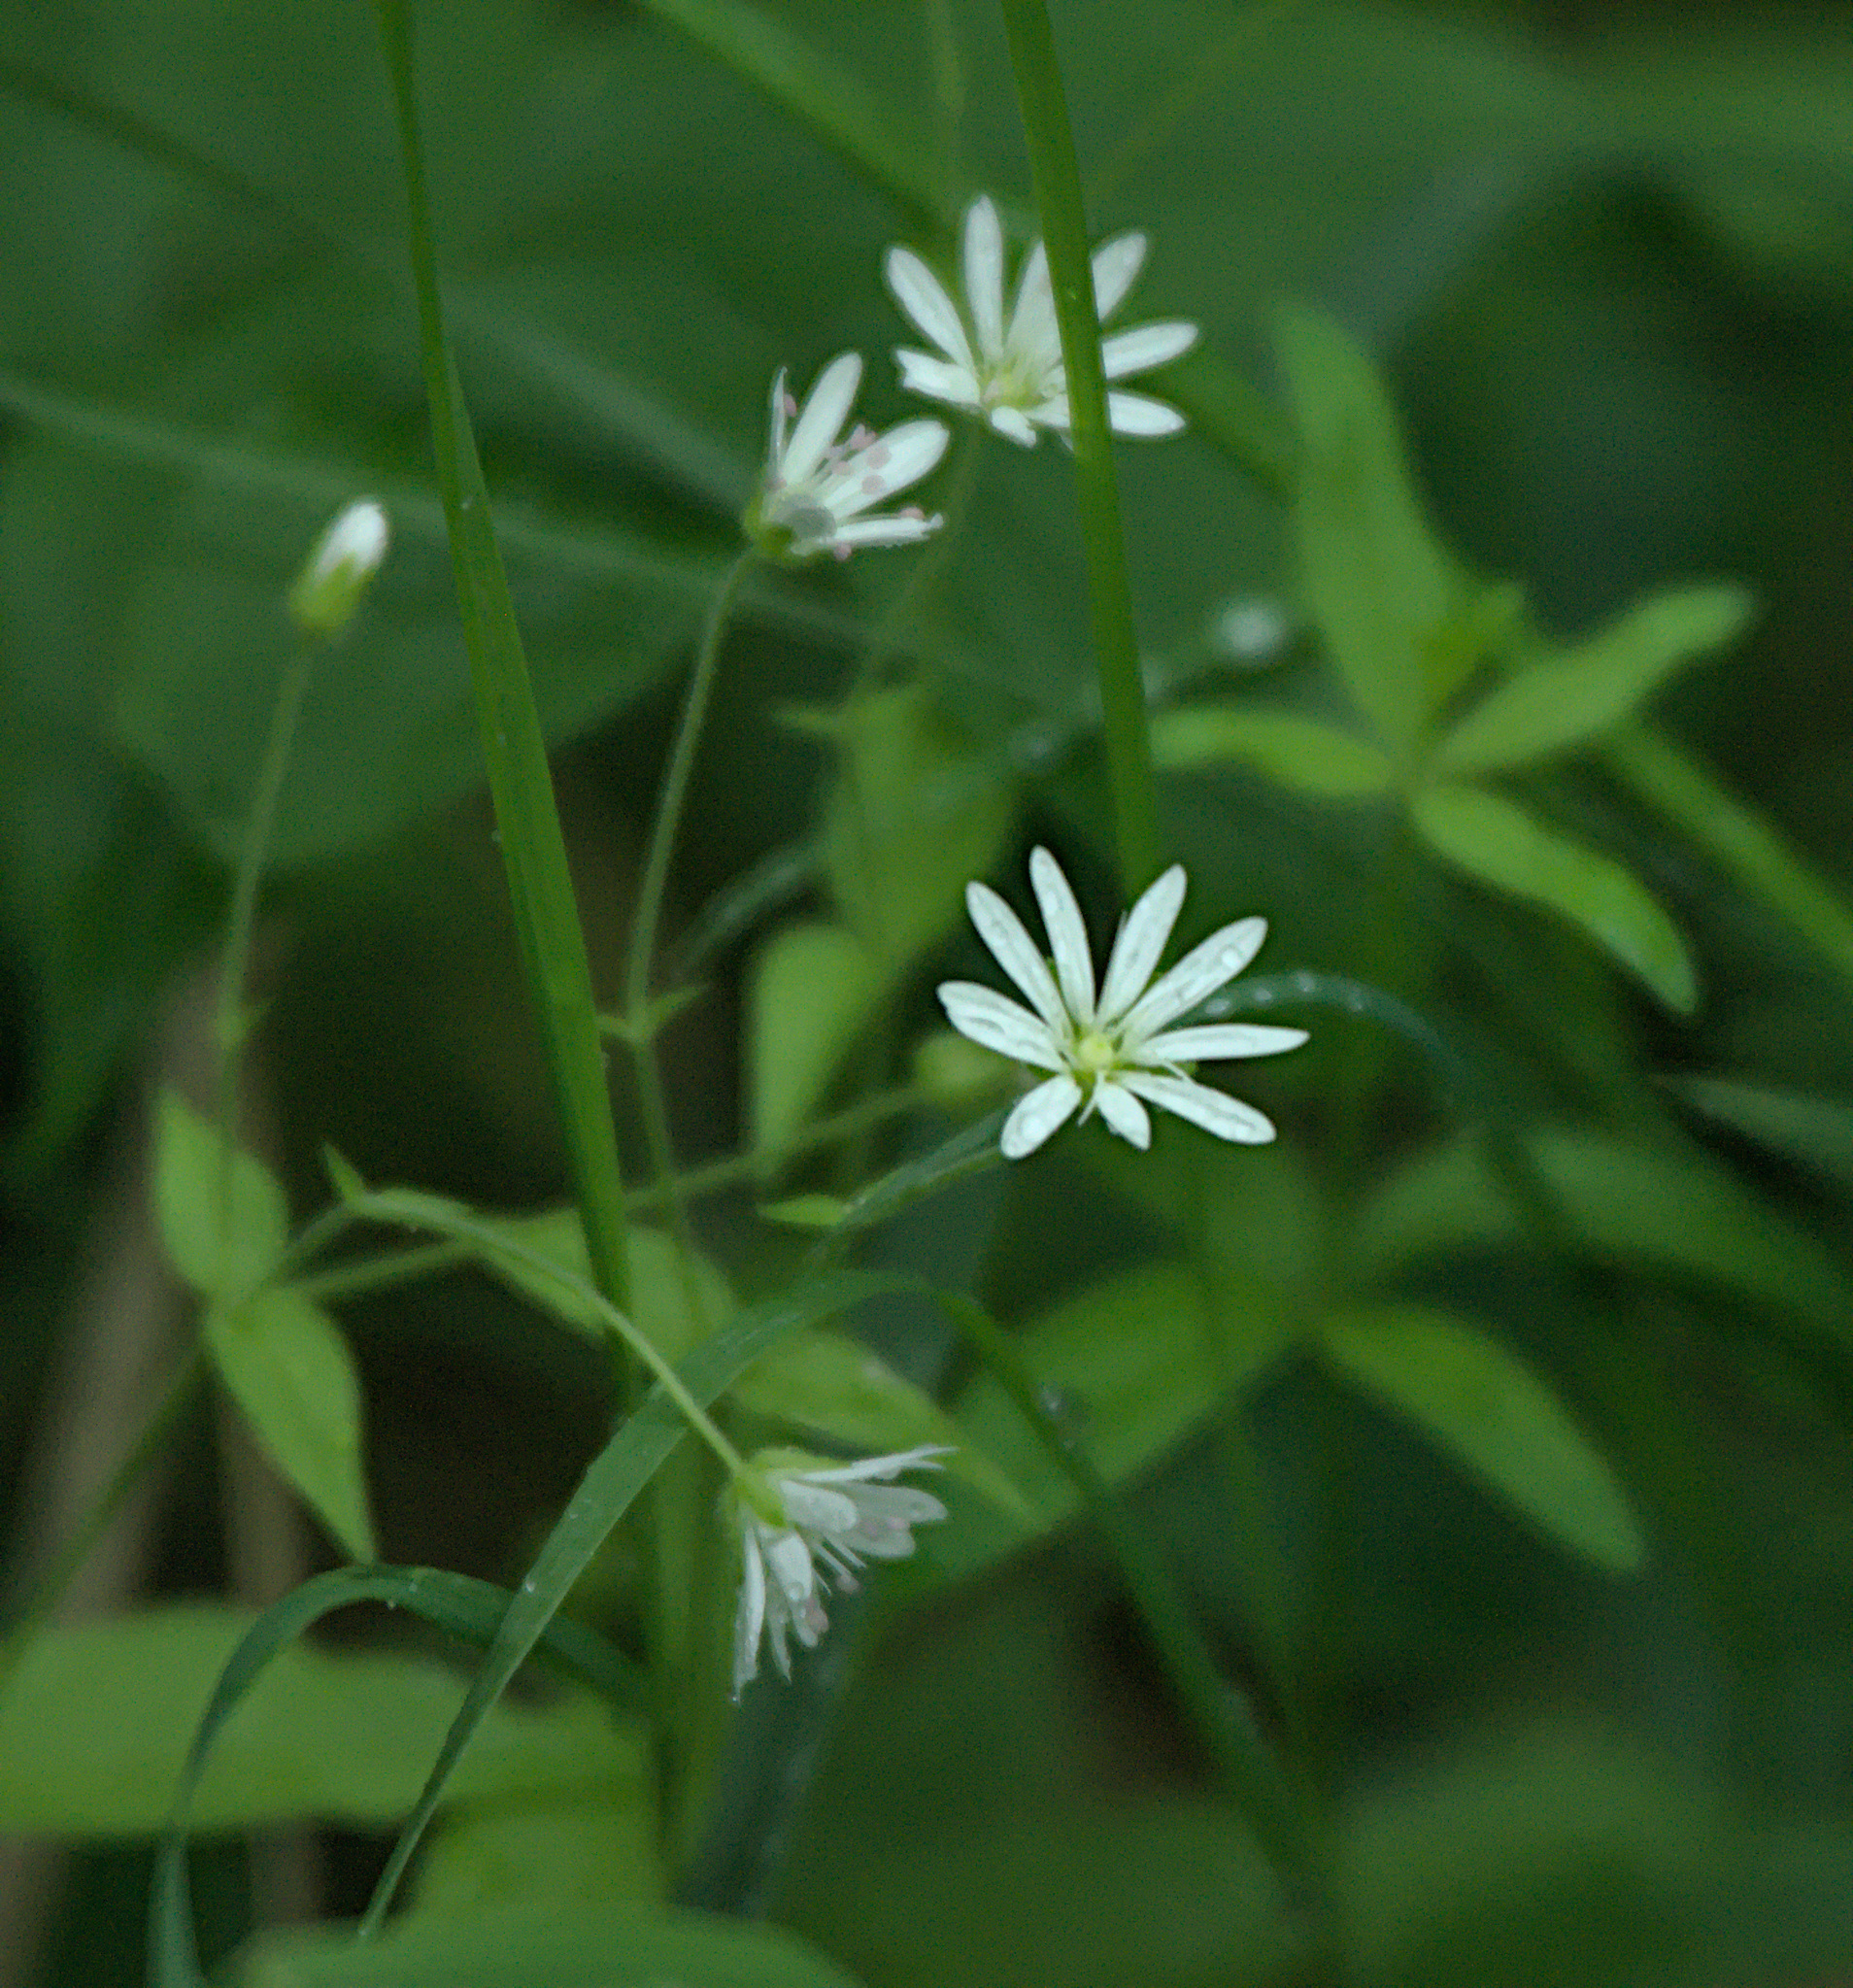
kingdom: Plantae
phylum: Tracheophyta
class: Magnoliopsida
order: Caryophyllales
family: Caryophyllaceae
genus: Stellaria
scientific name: Stellaria bungeana
